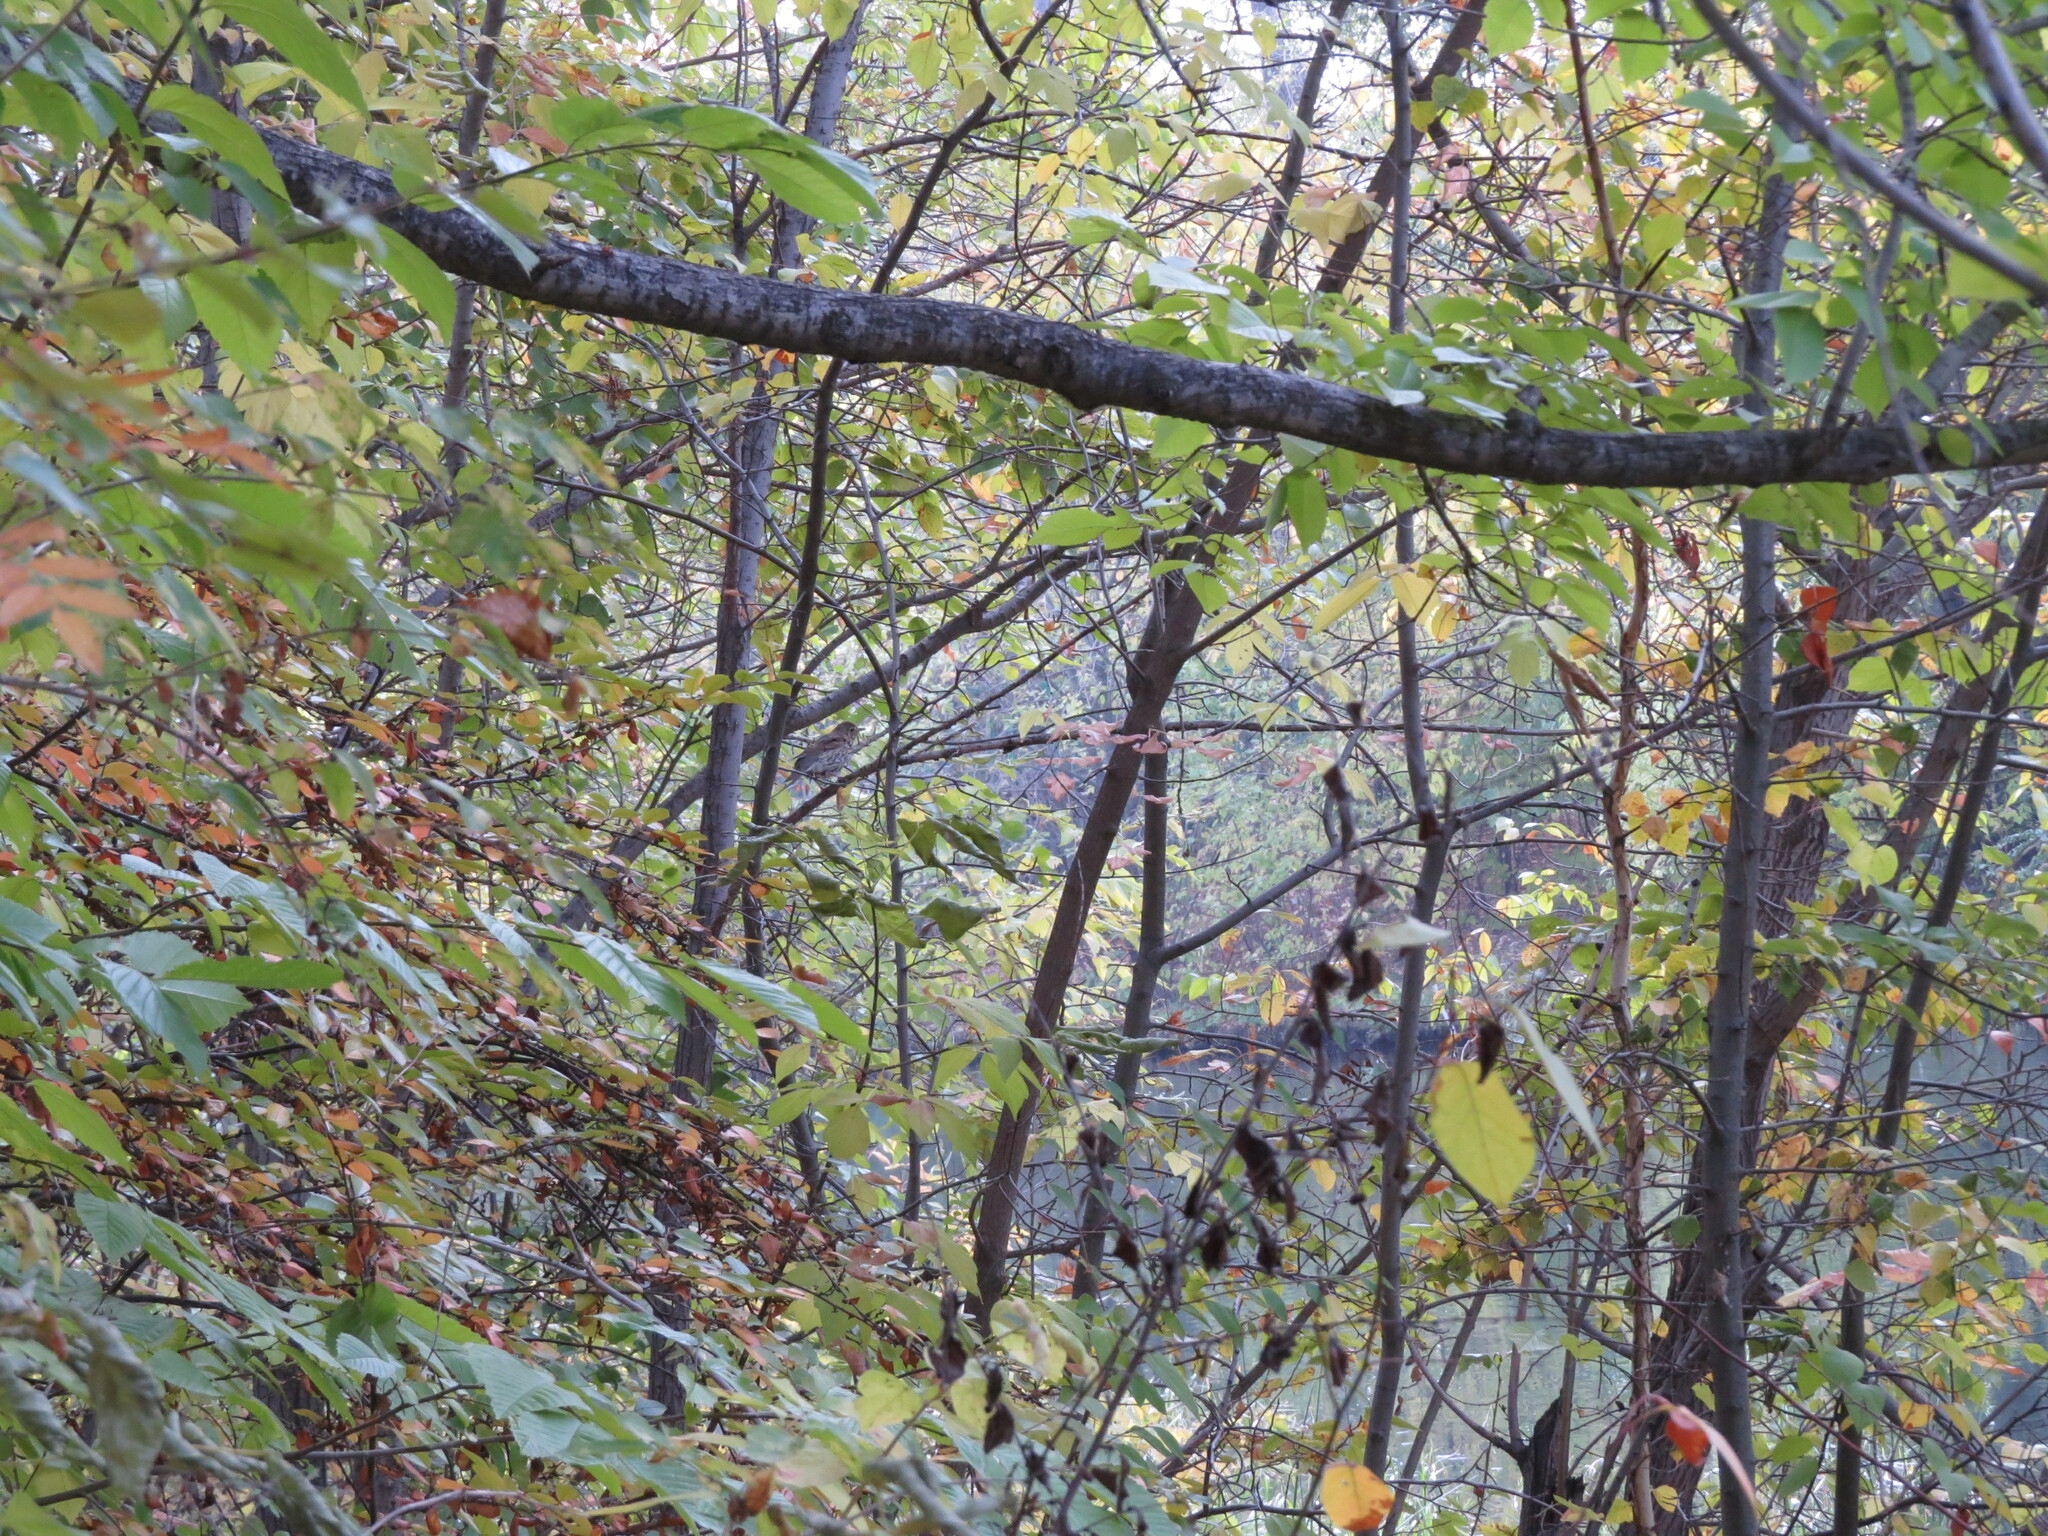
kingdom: Animalia
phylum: Chordata
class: Aves
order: Passeriformes
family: Turdidae
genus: Turdus
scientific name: Turdus philomelos
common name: Song thrush
